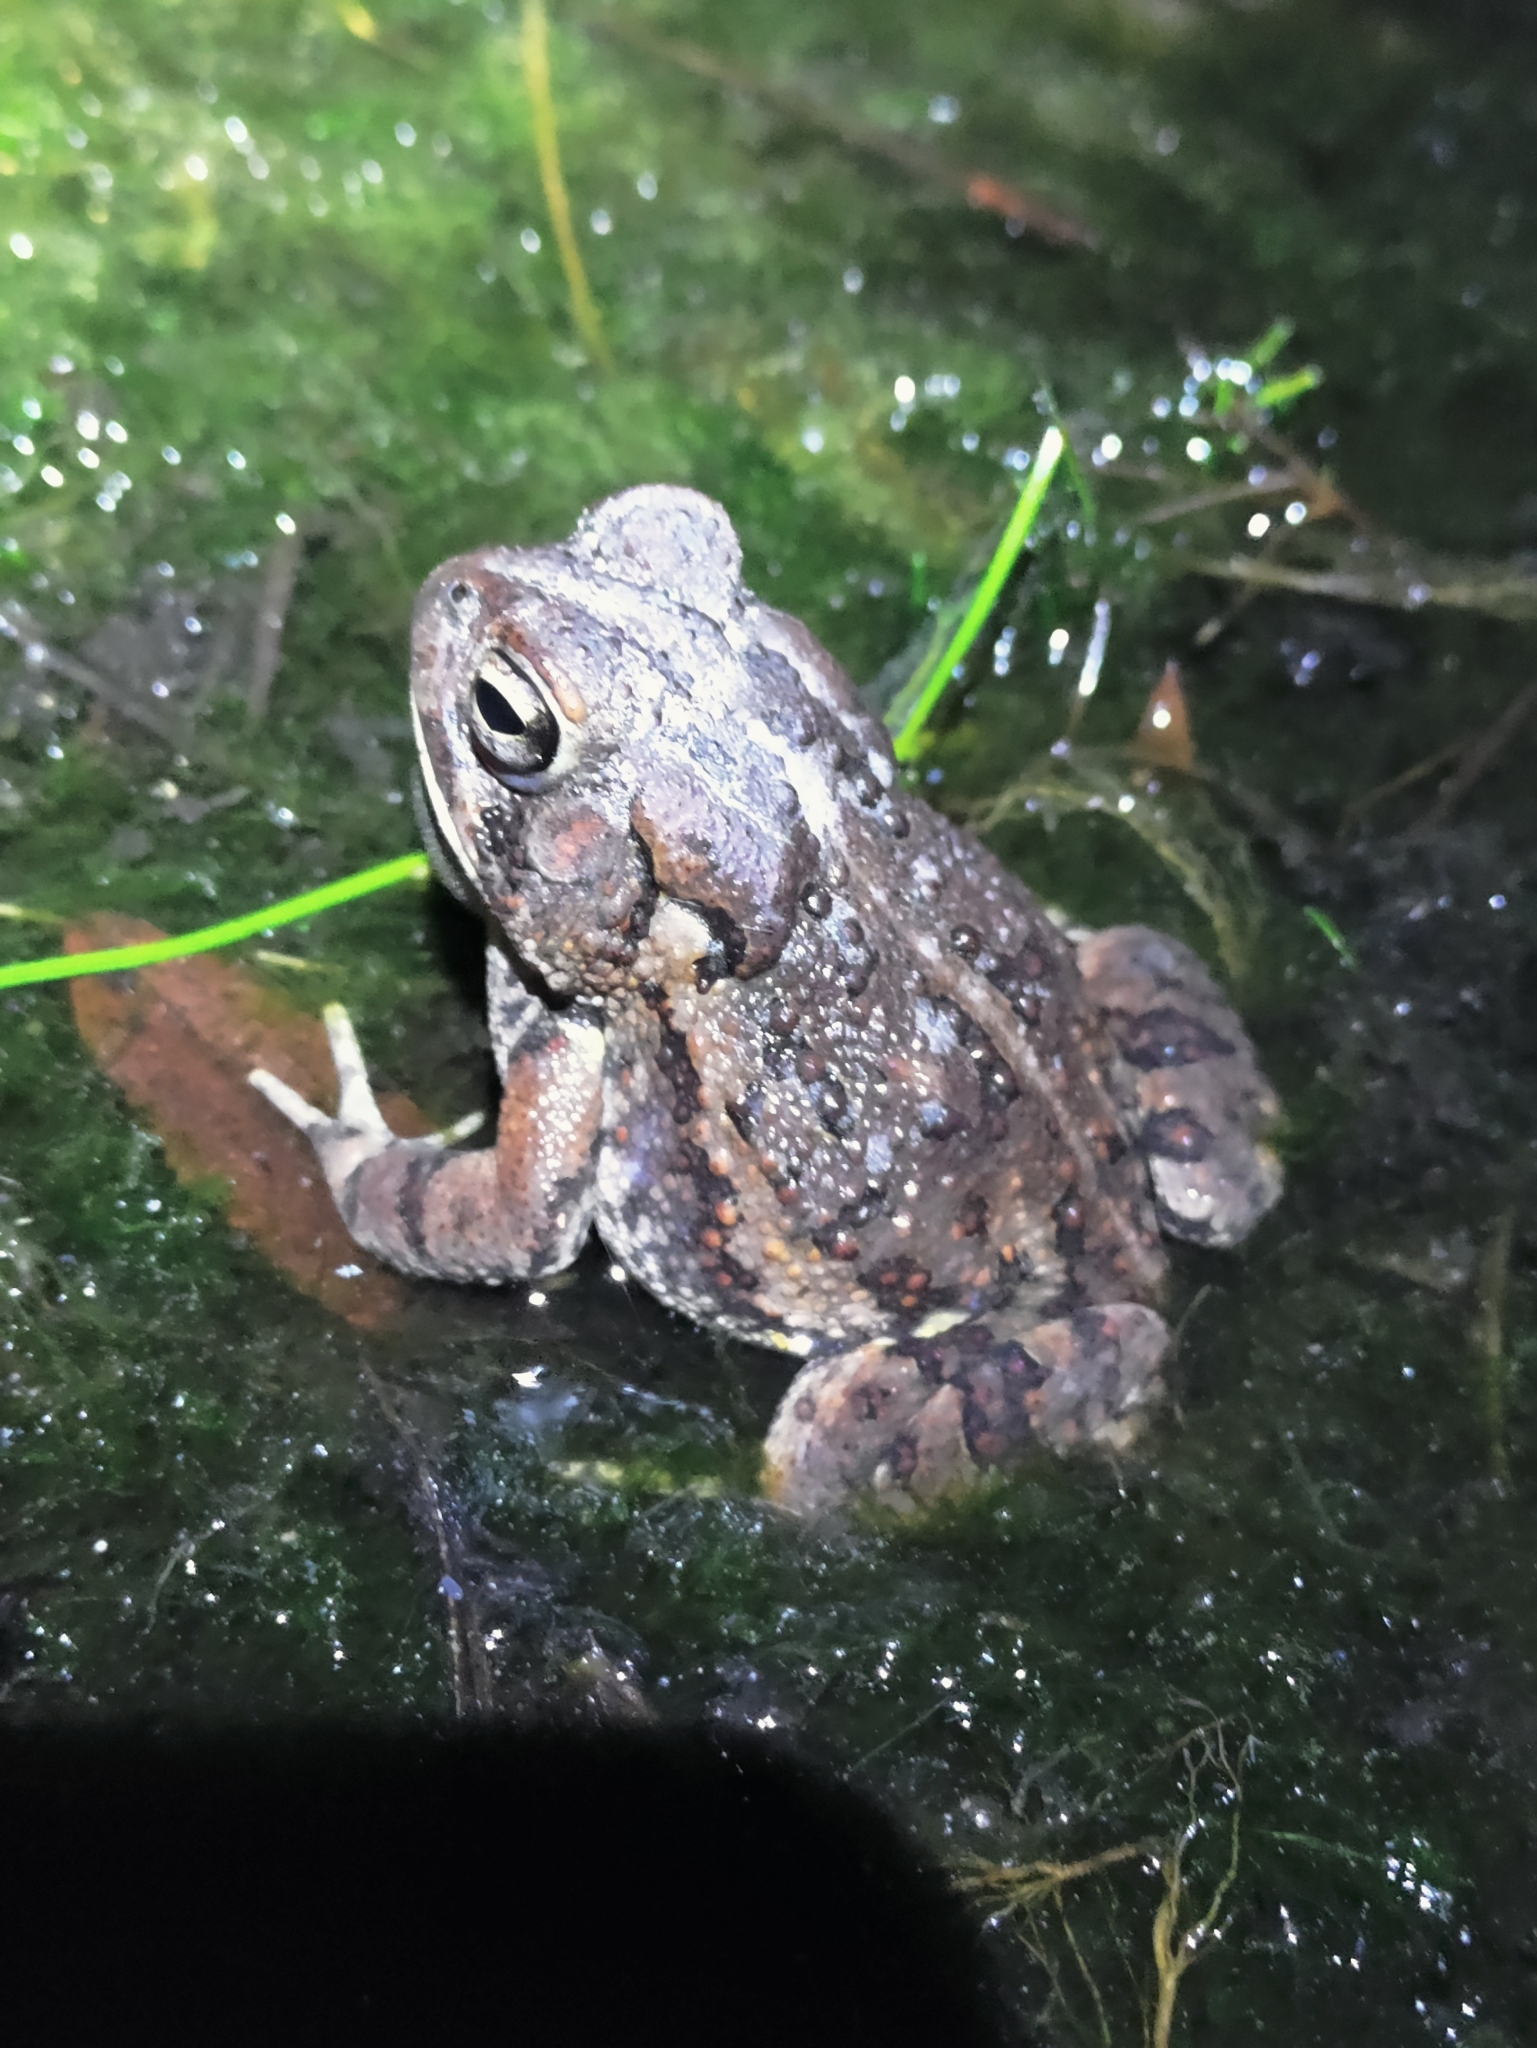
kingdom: Animalia
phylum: Chordata
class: Amphibia
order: Anura
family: Bufonidae
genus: Anaxyrus
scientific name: Anaxyrus fowleri
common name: Fowler's toad
